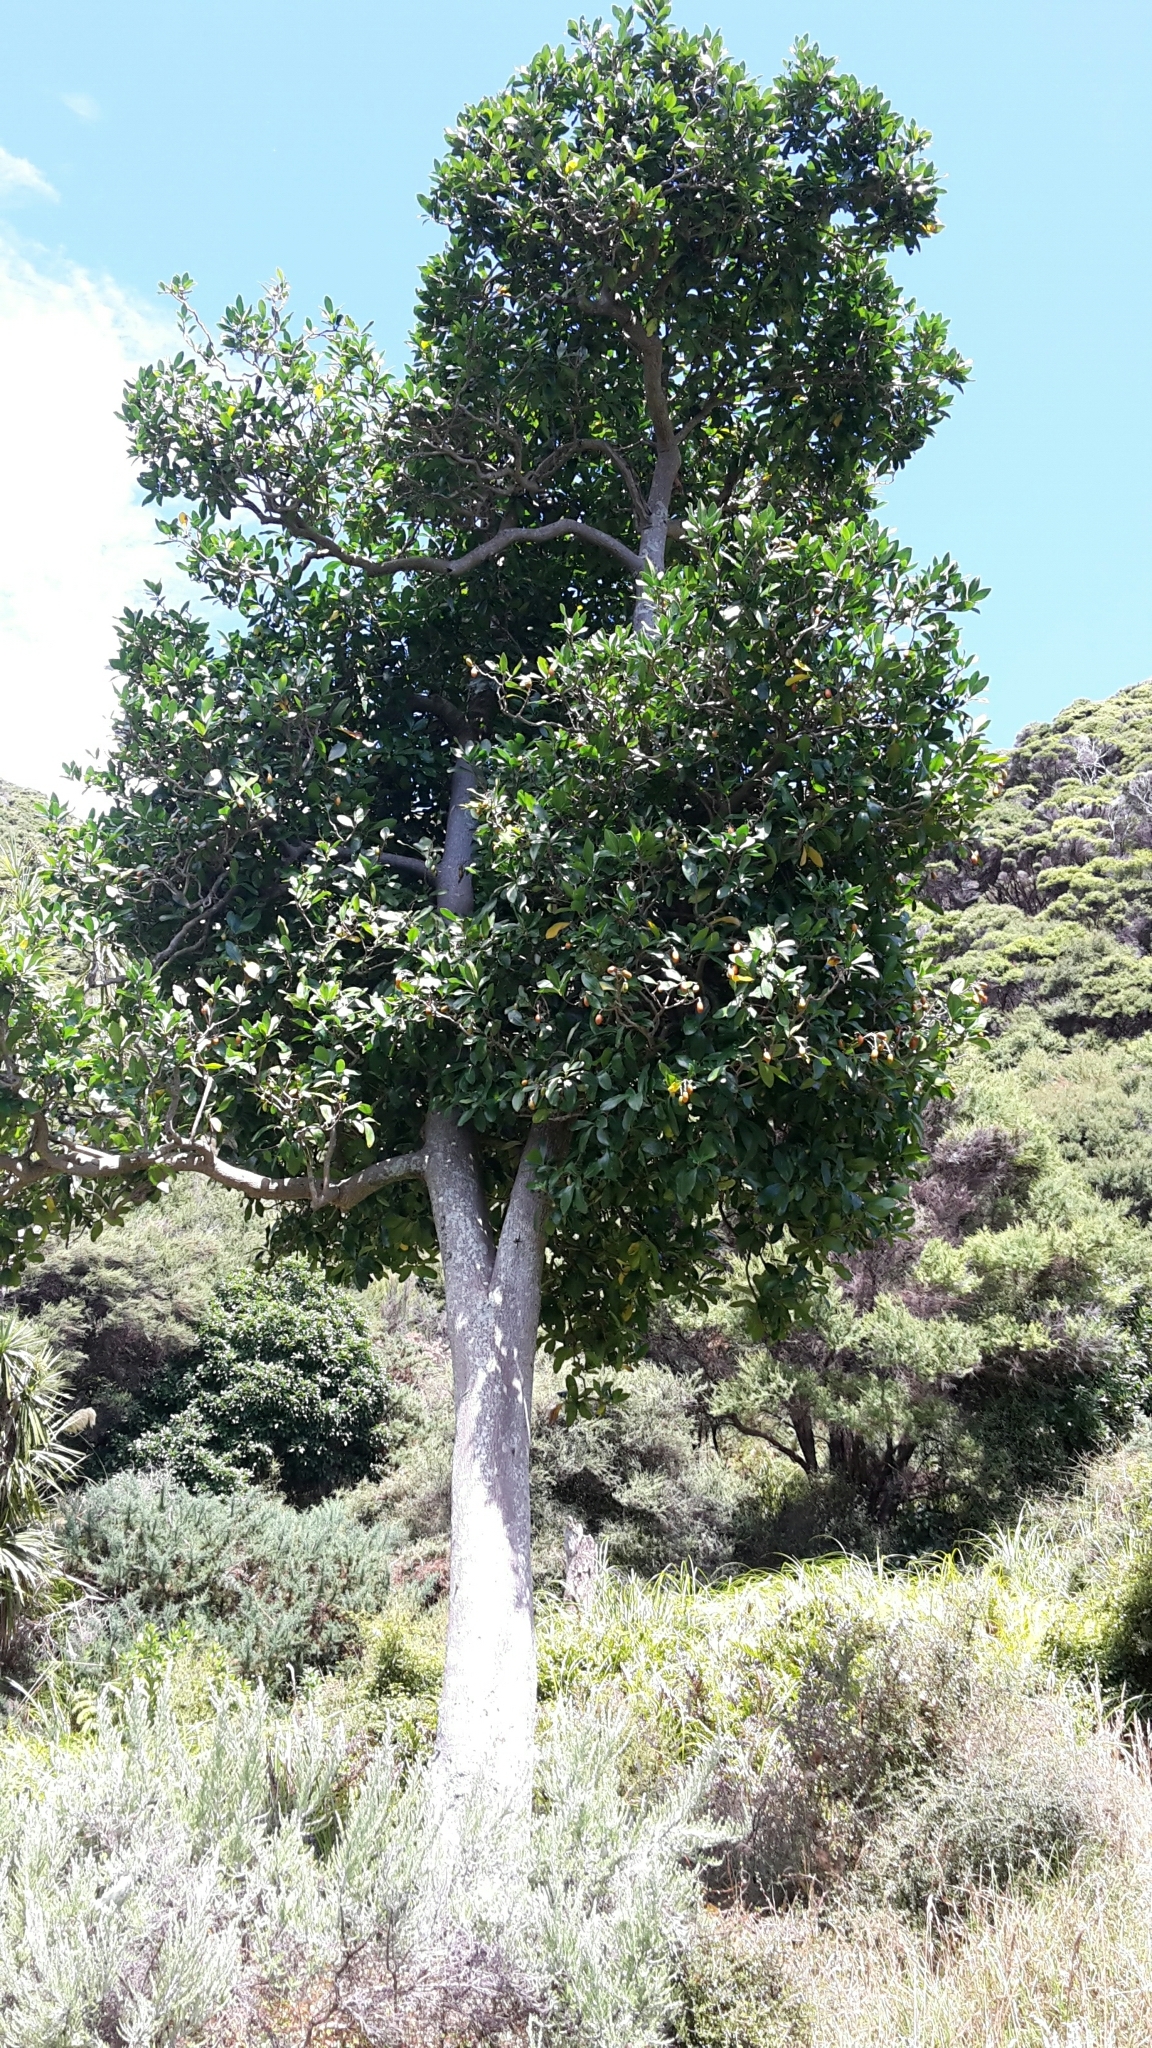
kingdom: Plantae
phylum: Tracheophyta
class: Magnoliopsida
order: Cucurbitales
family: Corynocarpaceae
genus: Corynocarpus
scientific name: Corynocarpus laevigatus
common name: New zealand laurel
